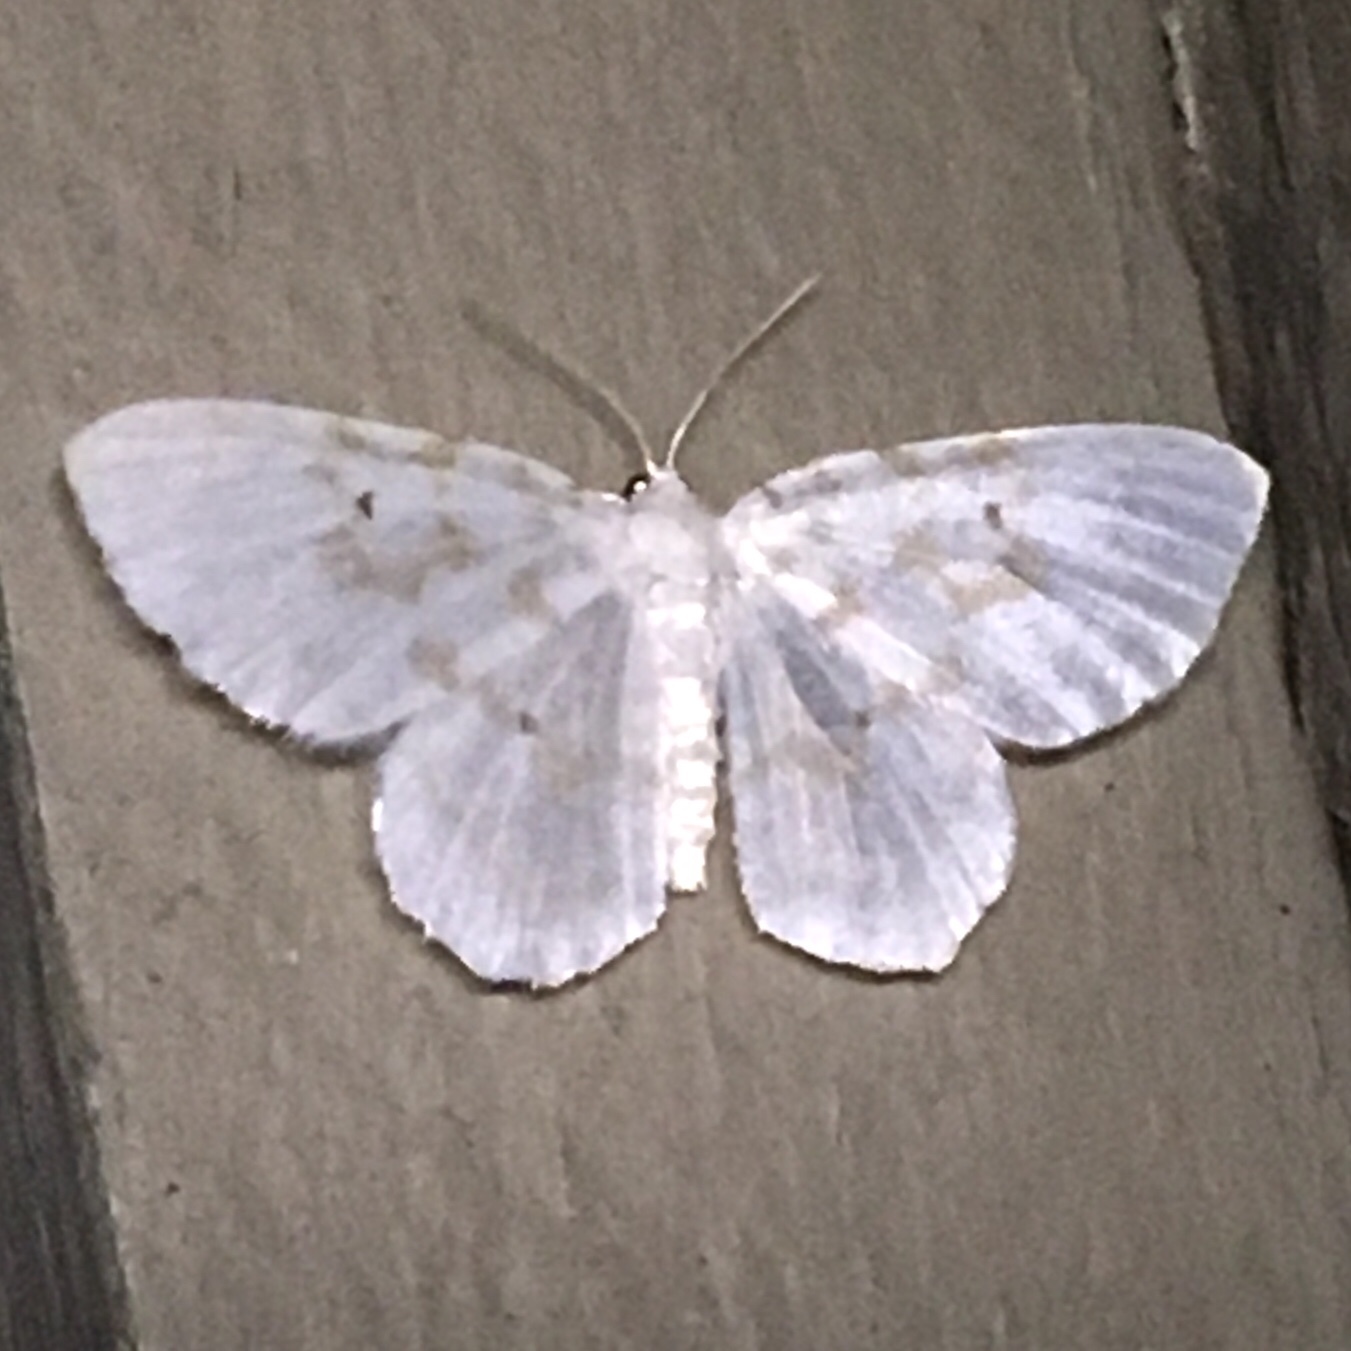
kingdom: Animalia
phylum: Arthropoda
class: Insecta
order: Lepidoptera
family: Geometridae
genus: Hydrelia
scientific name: Hydrelia albifera
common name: Fragile white carpet
